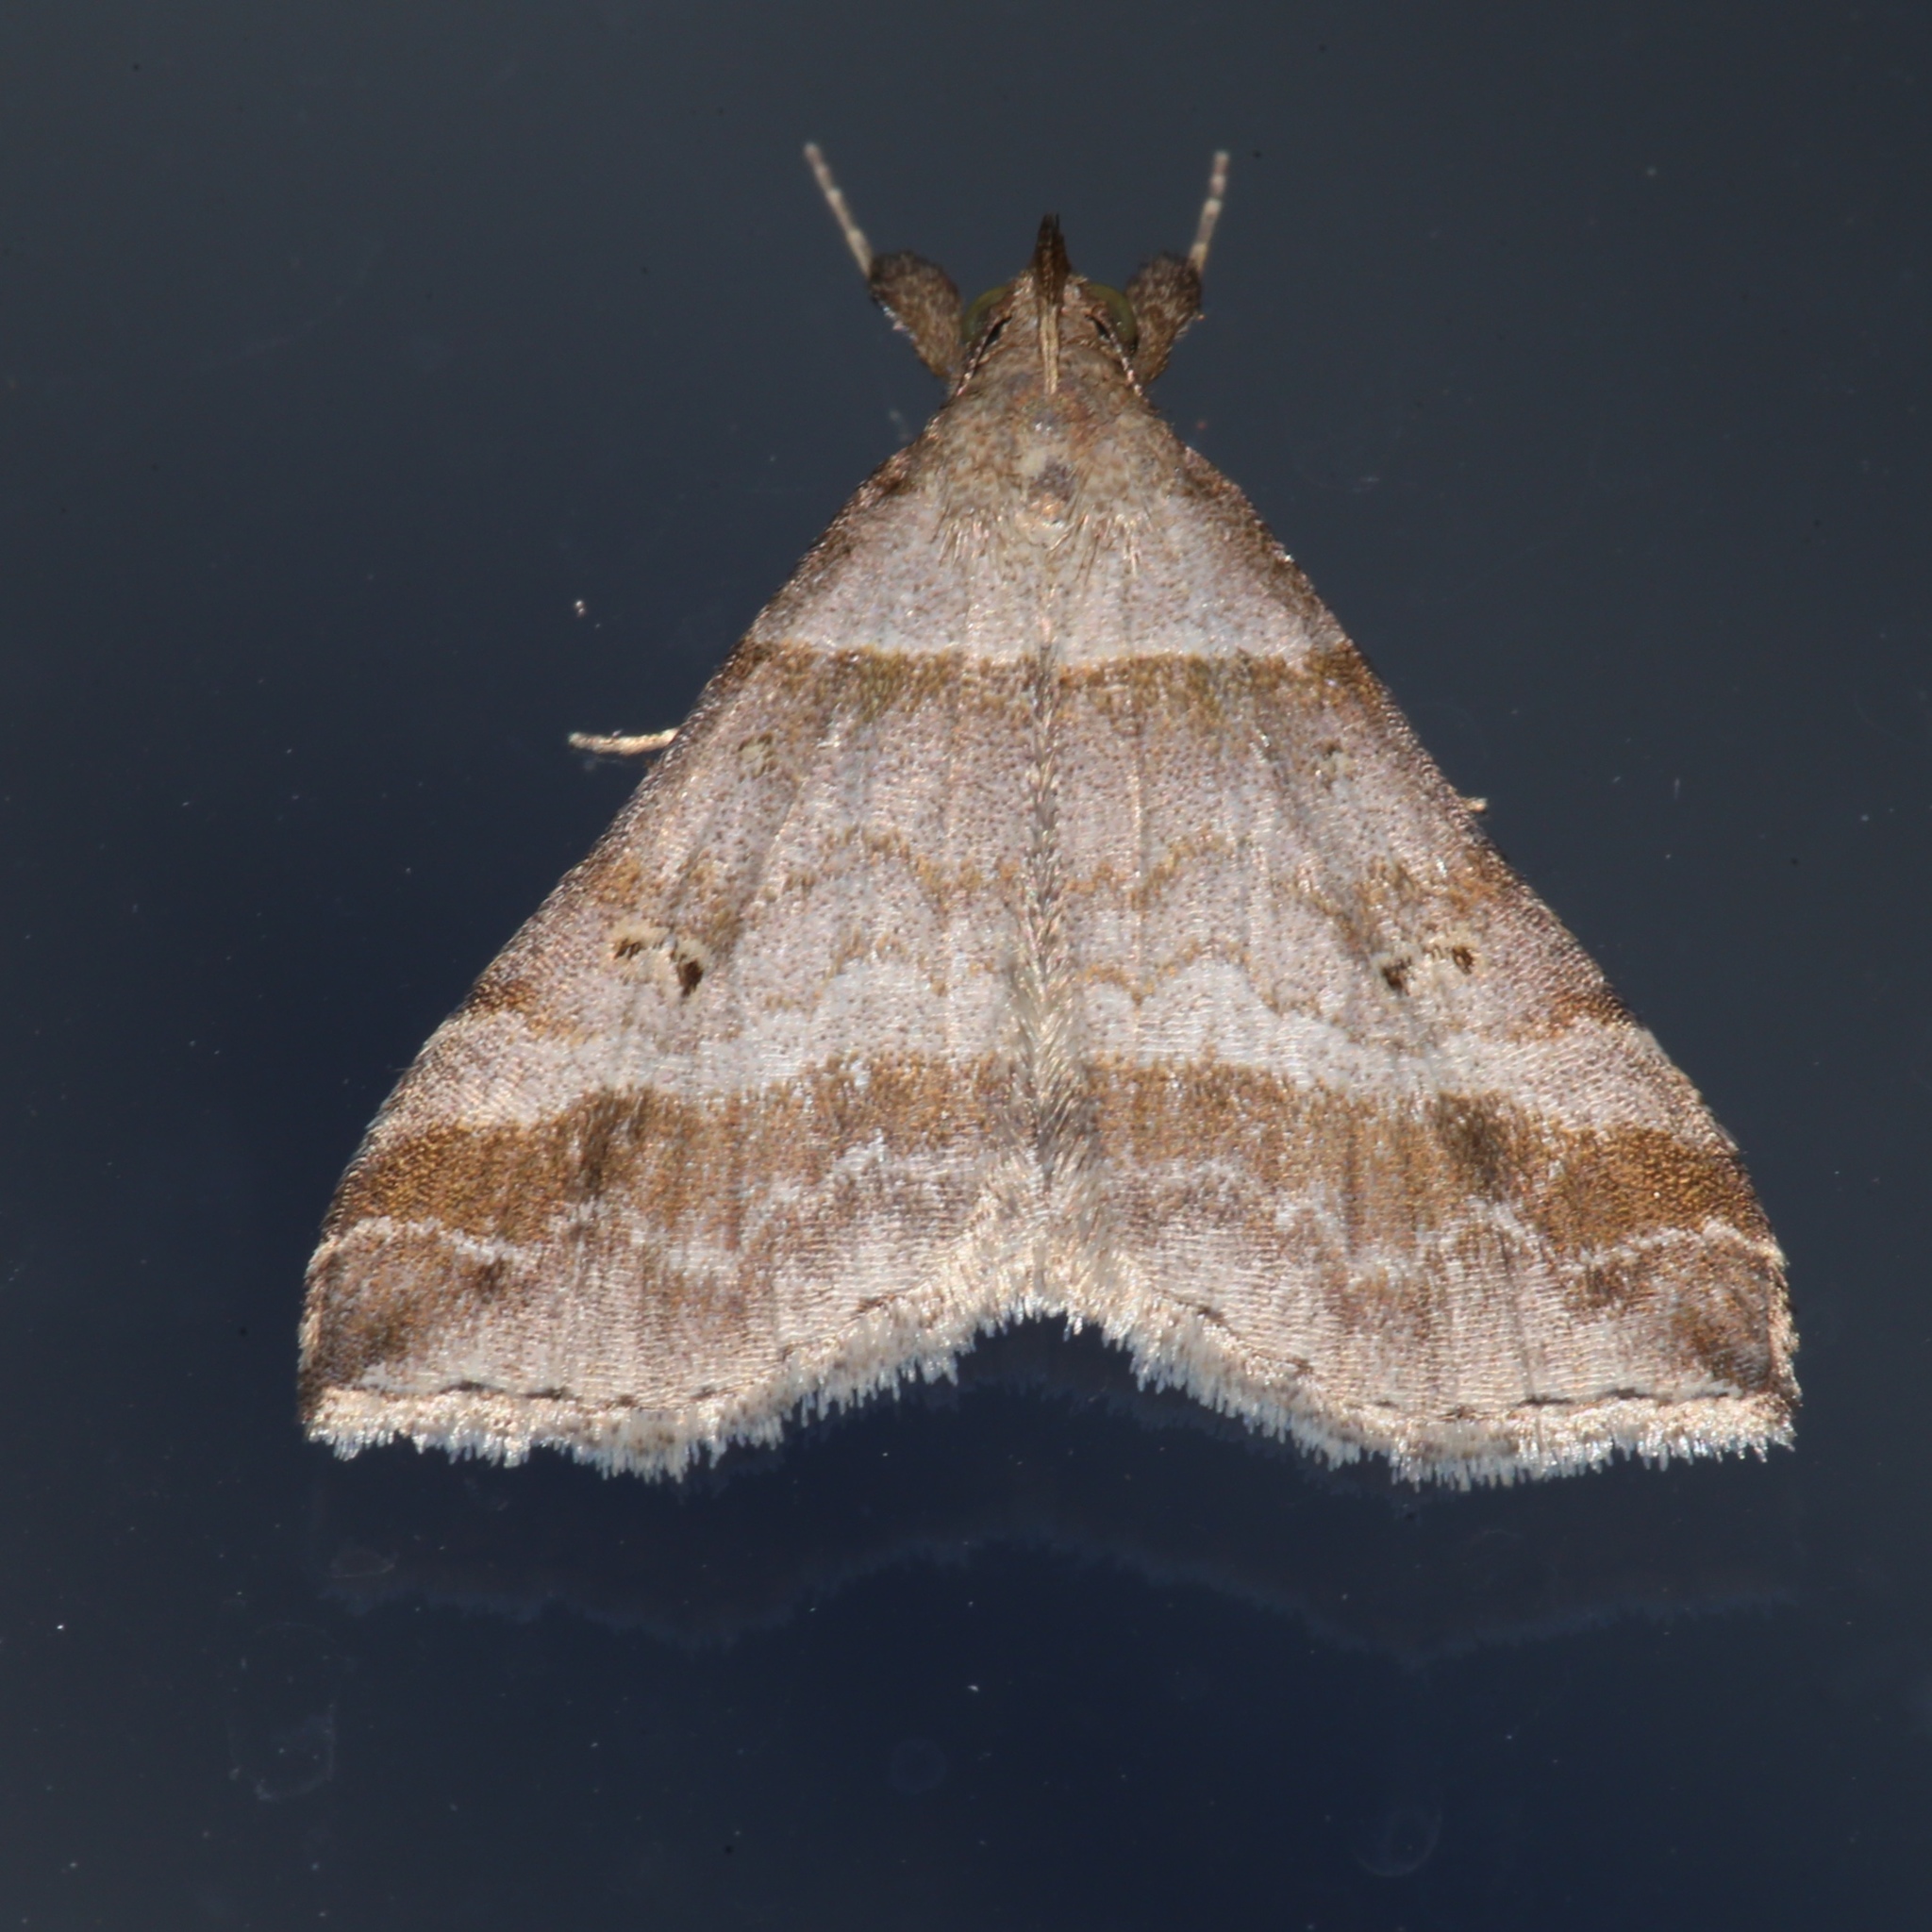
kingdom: Animalia
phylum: Arthropoda
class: Insecta
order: Lepidoptera
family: Erebidae
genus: Phaeolita
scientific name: Phaeolita pyramusalis
